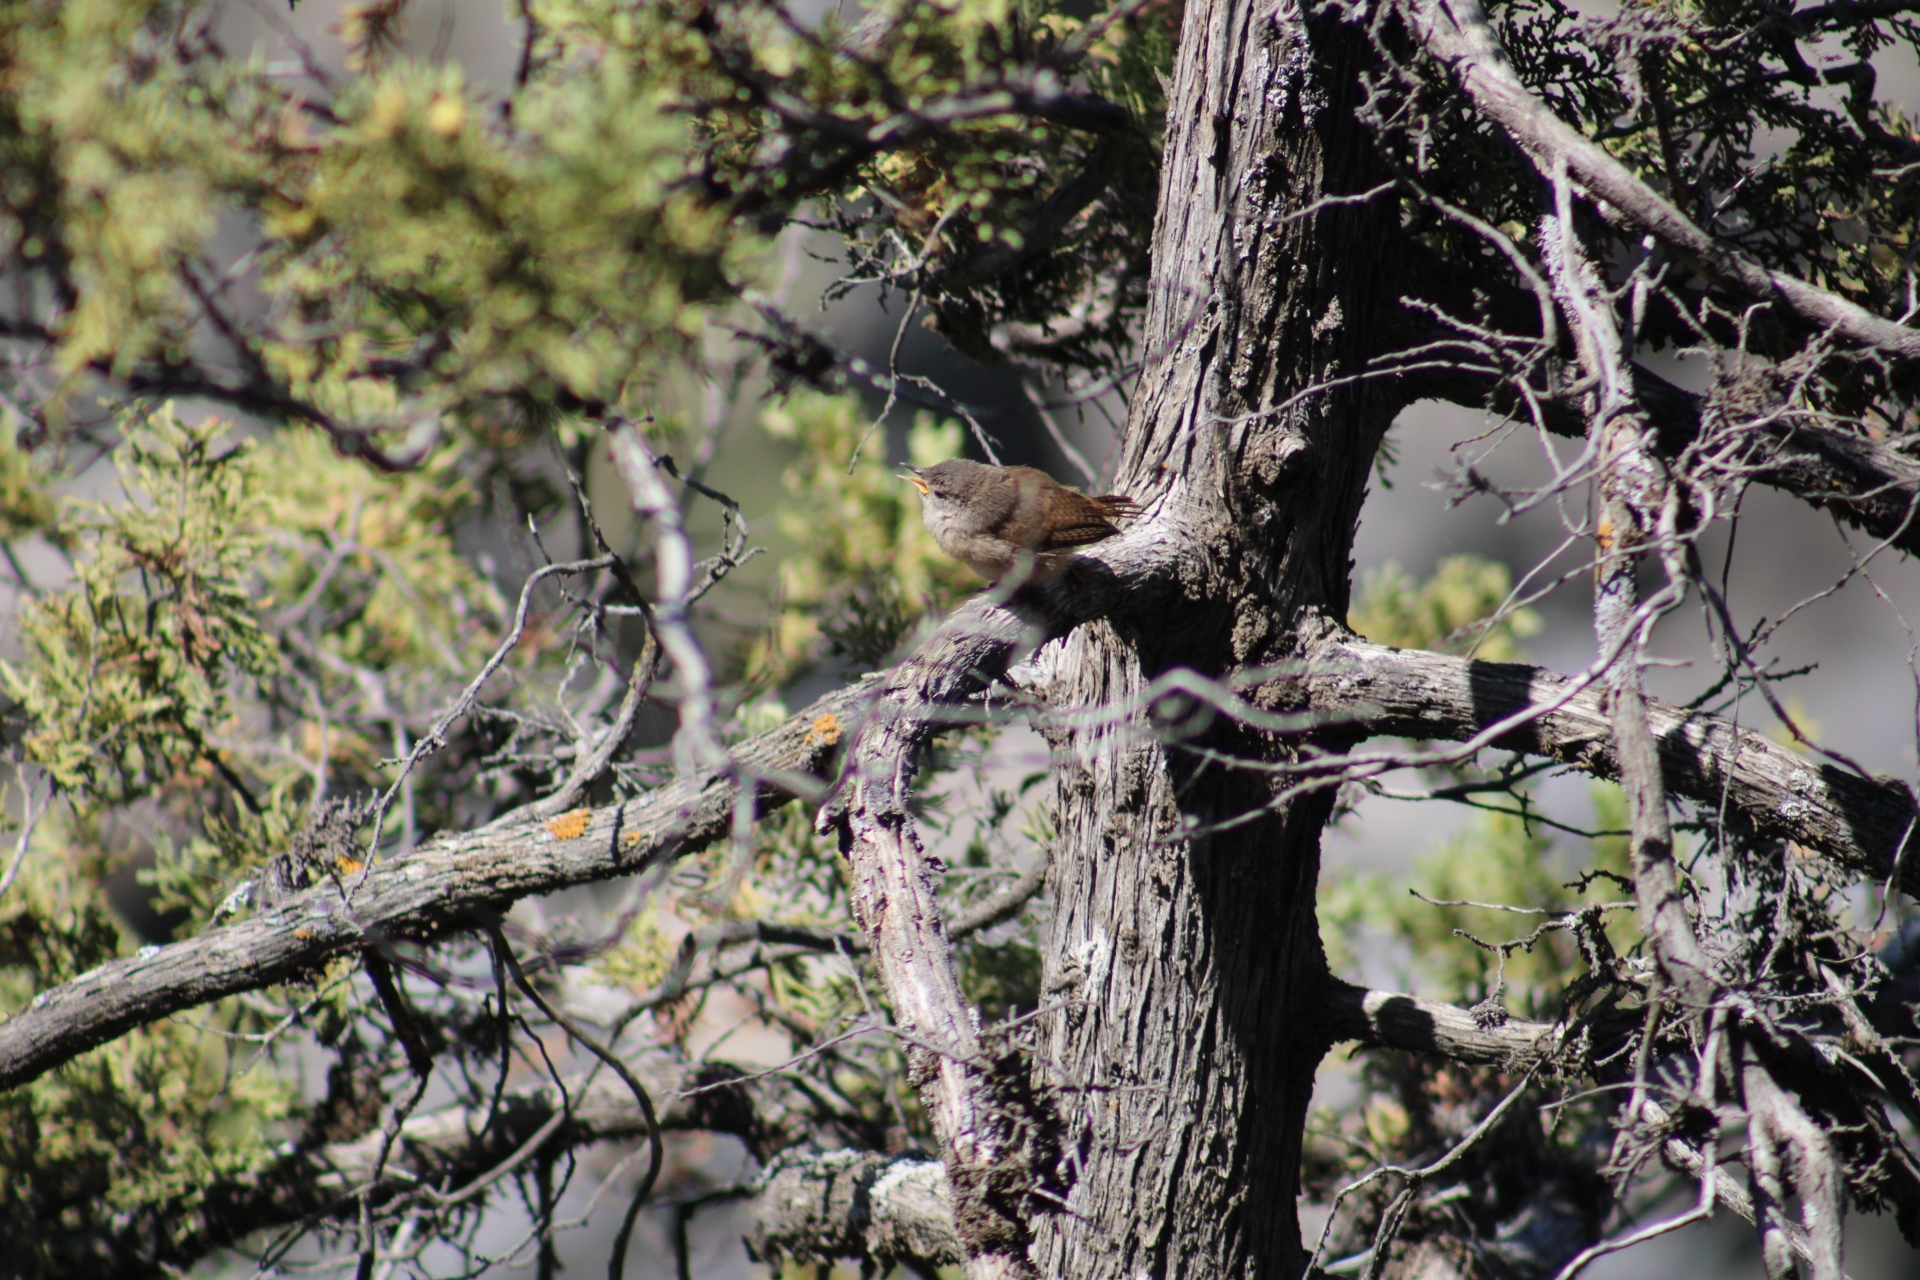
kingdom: Animalia
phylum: Chordata
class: Aves
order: Passeriformes
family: Troglodytidae
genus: Troglodytes
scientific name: Troglodytes aedon
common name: House wren
